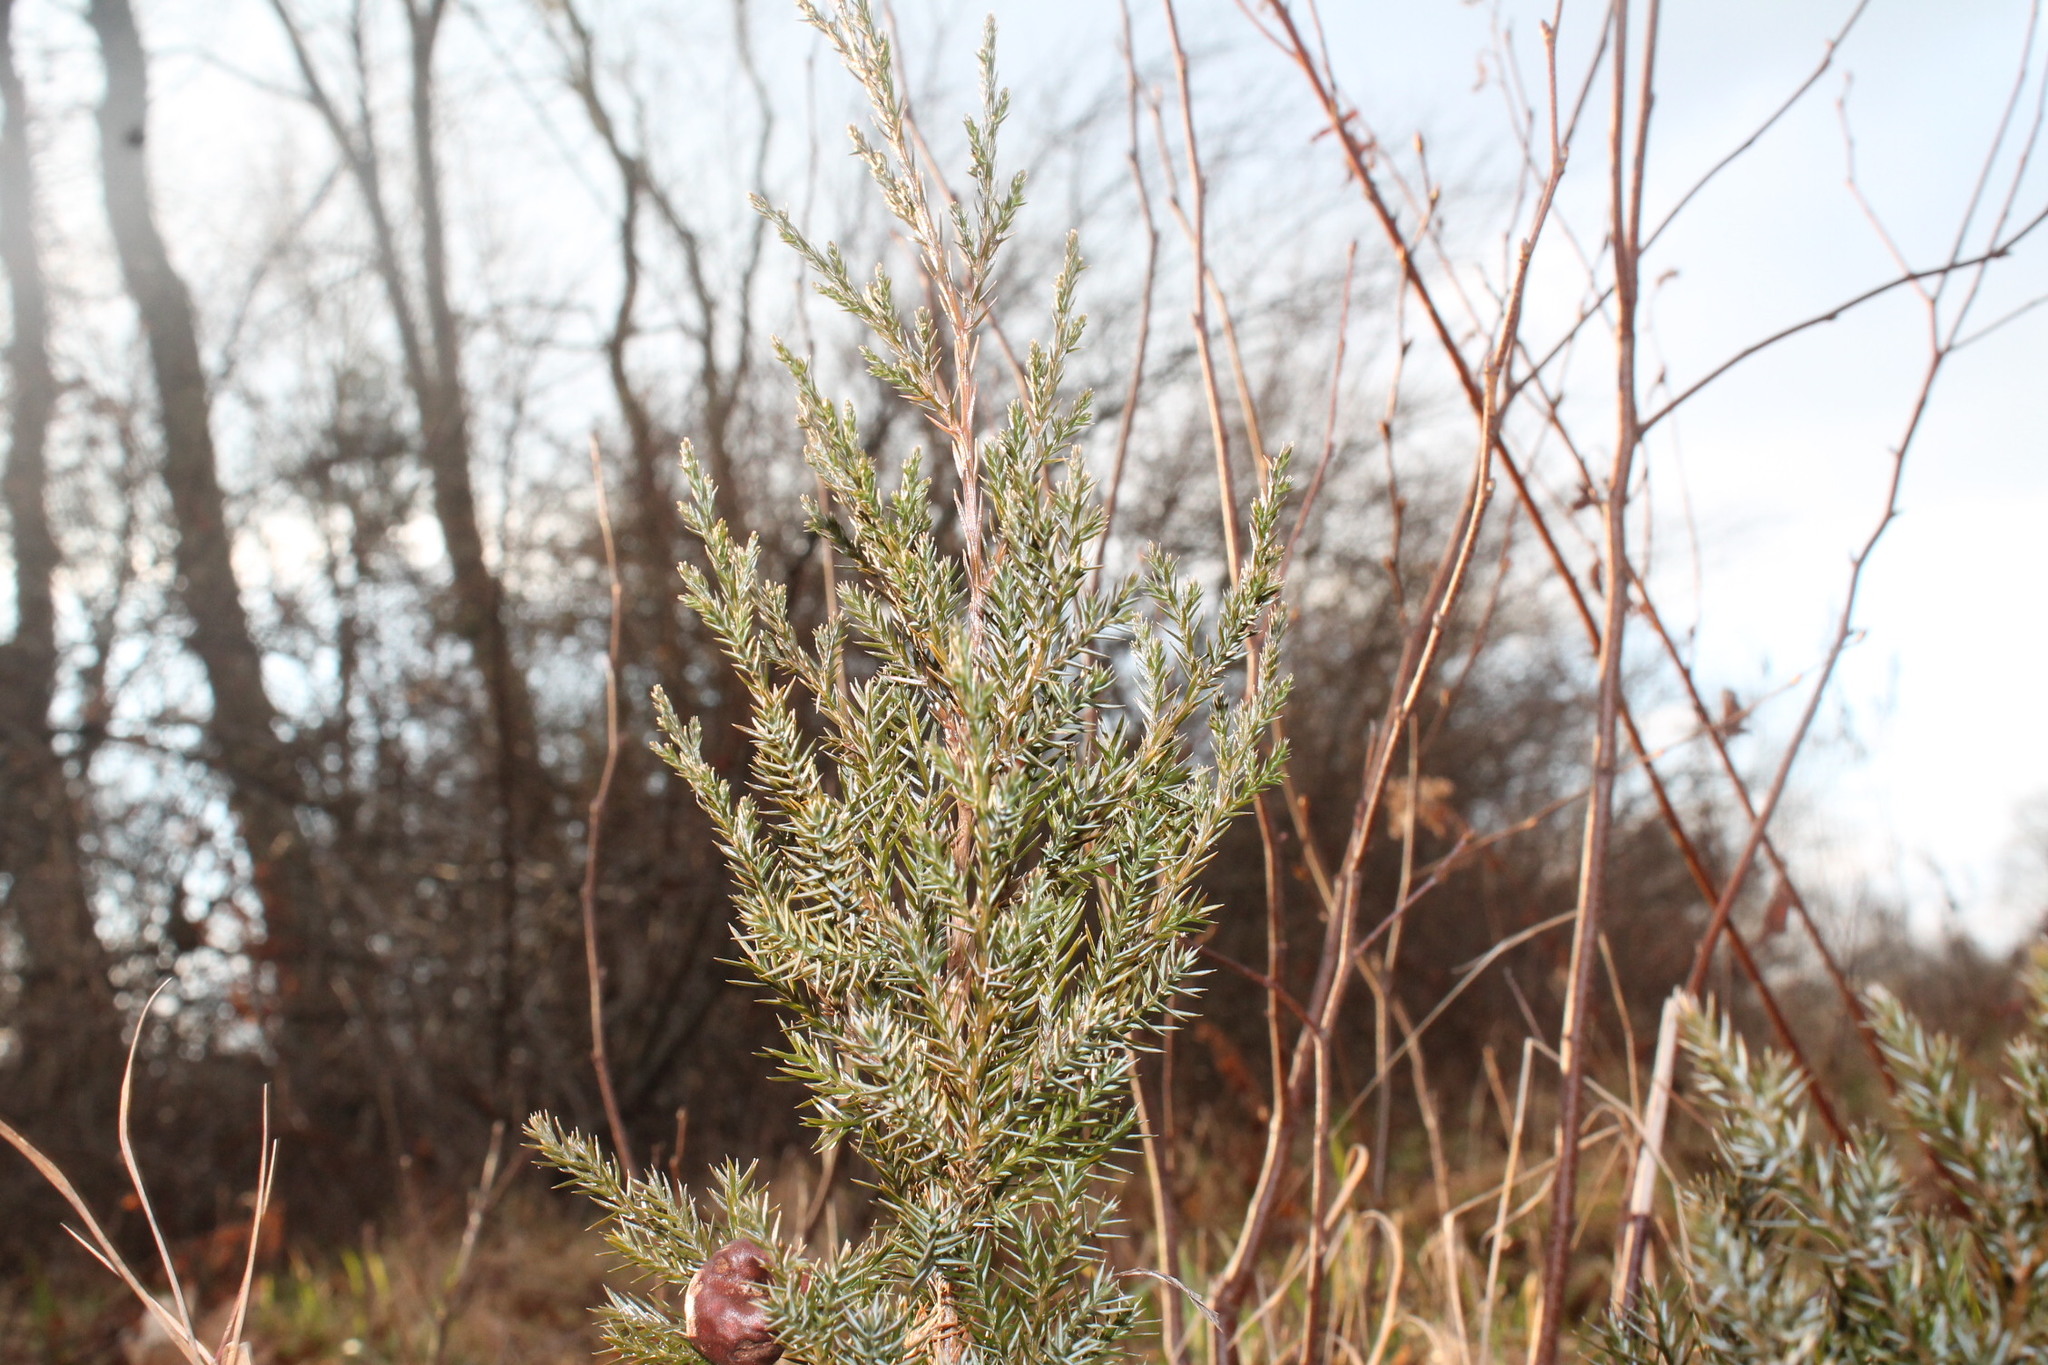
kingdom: Plantae
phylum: Tracheophyta
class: Pinopsida
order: Pinales
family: Cupressaceae
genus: Juniperus
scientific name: Juniperus virginiana
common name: Red juniper
